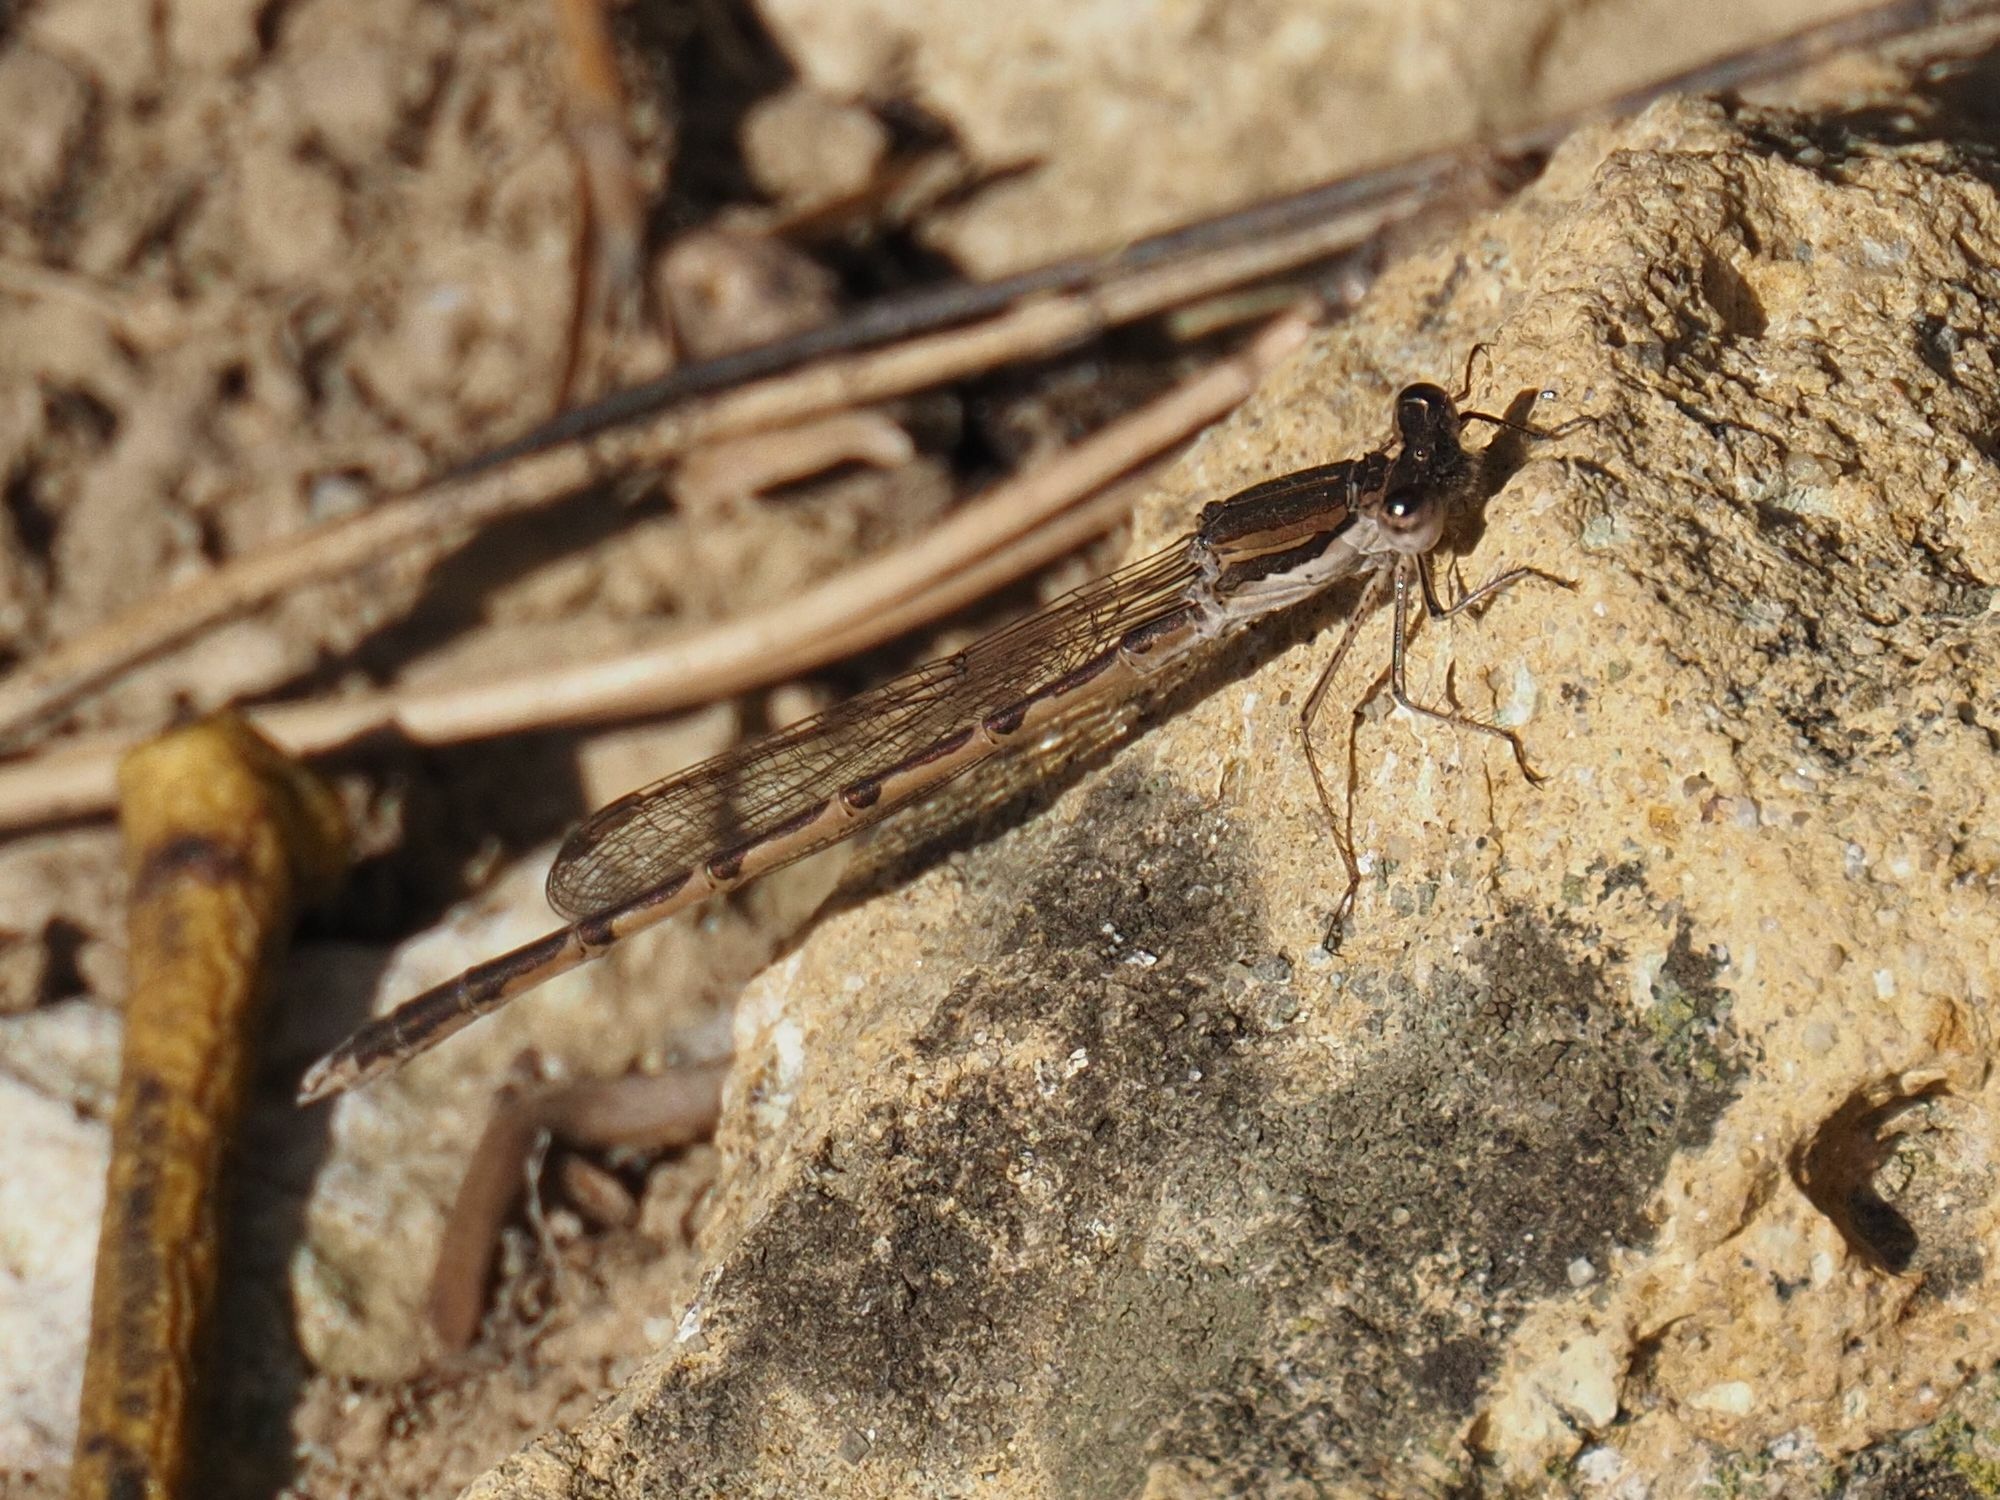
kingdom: Animalia
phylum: Arthropoda
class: Insecta
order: Odonata
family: Lestidae
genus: Sympecma
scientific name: Sympecma fusca
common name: Common winter damsel
